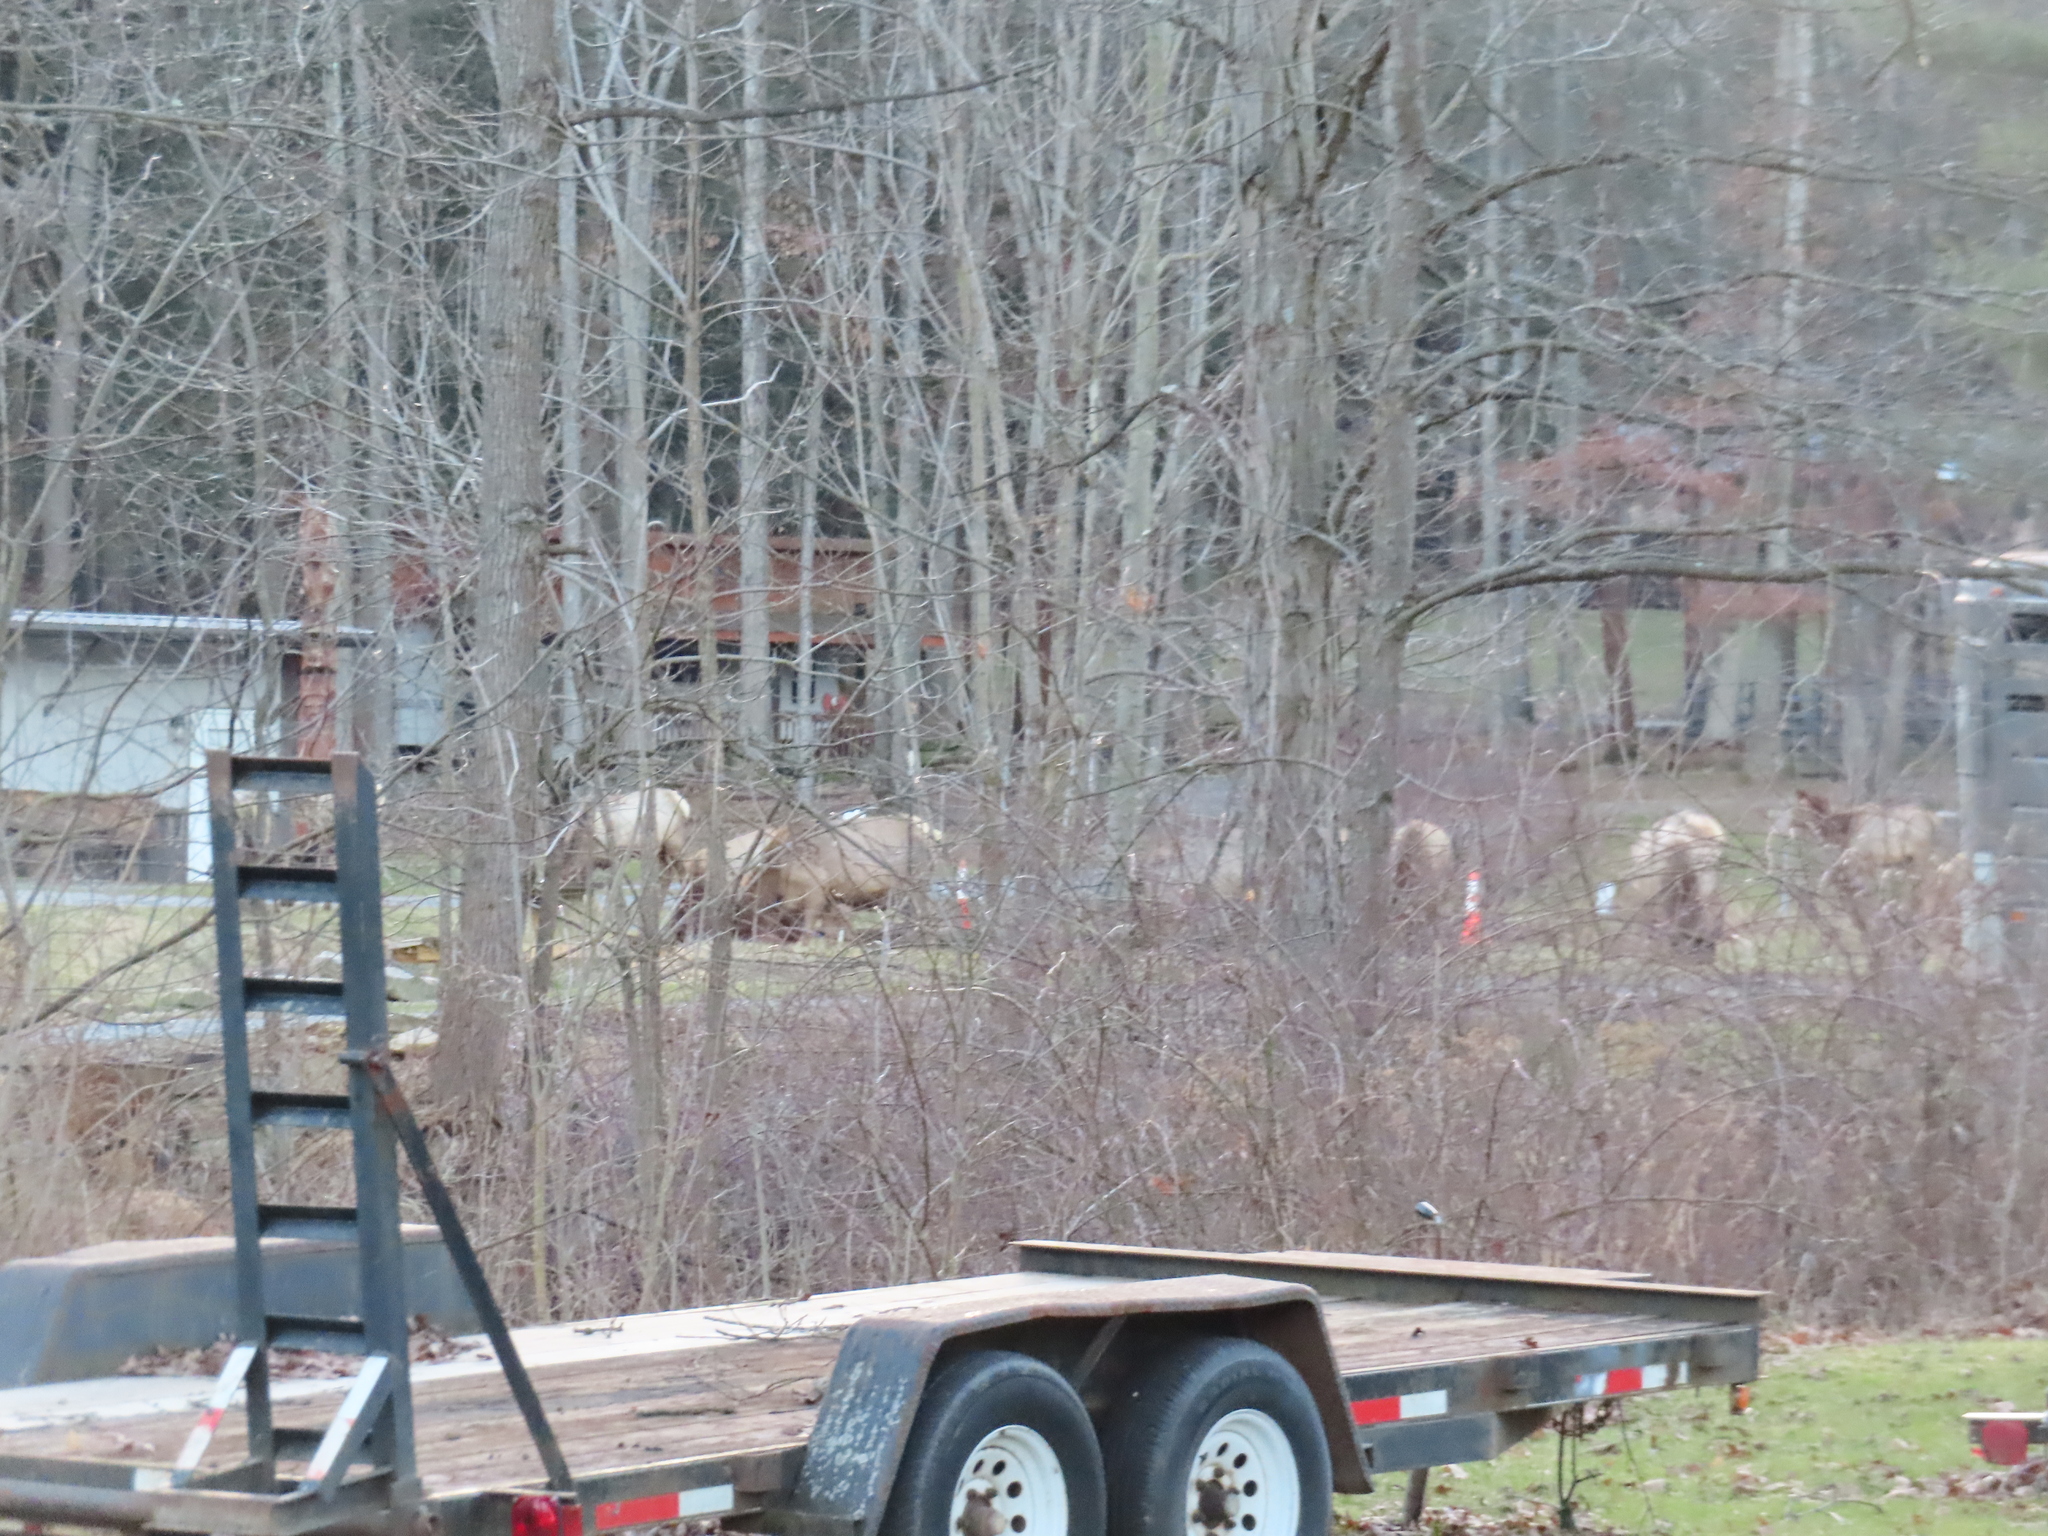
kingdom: Animalia
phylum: Chordata
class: Mammalia
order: Artiodactyla
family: Cervidae
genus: Cervus
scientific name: Cervus elaphus
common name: Red deer
